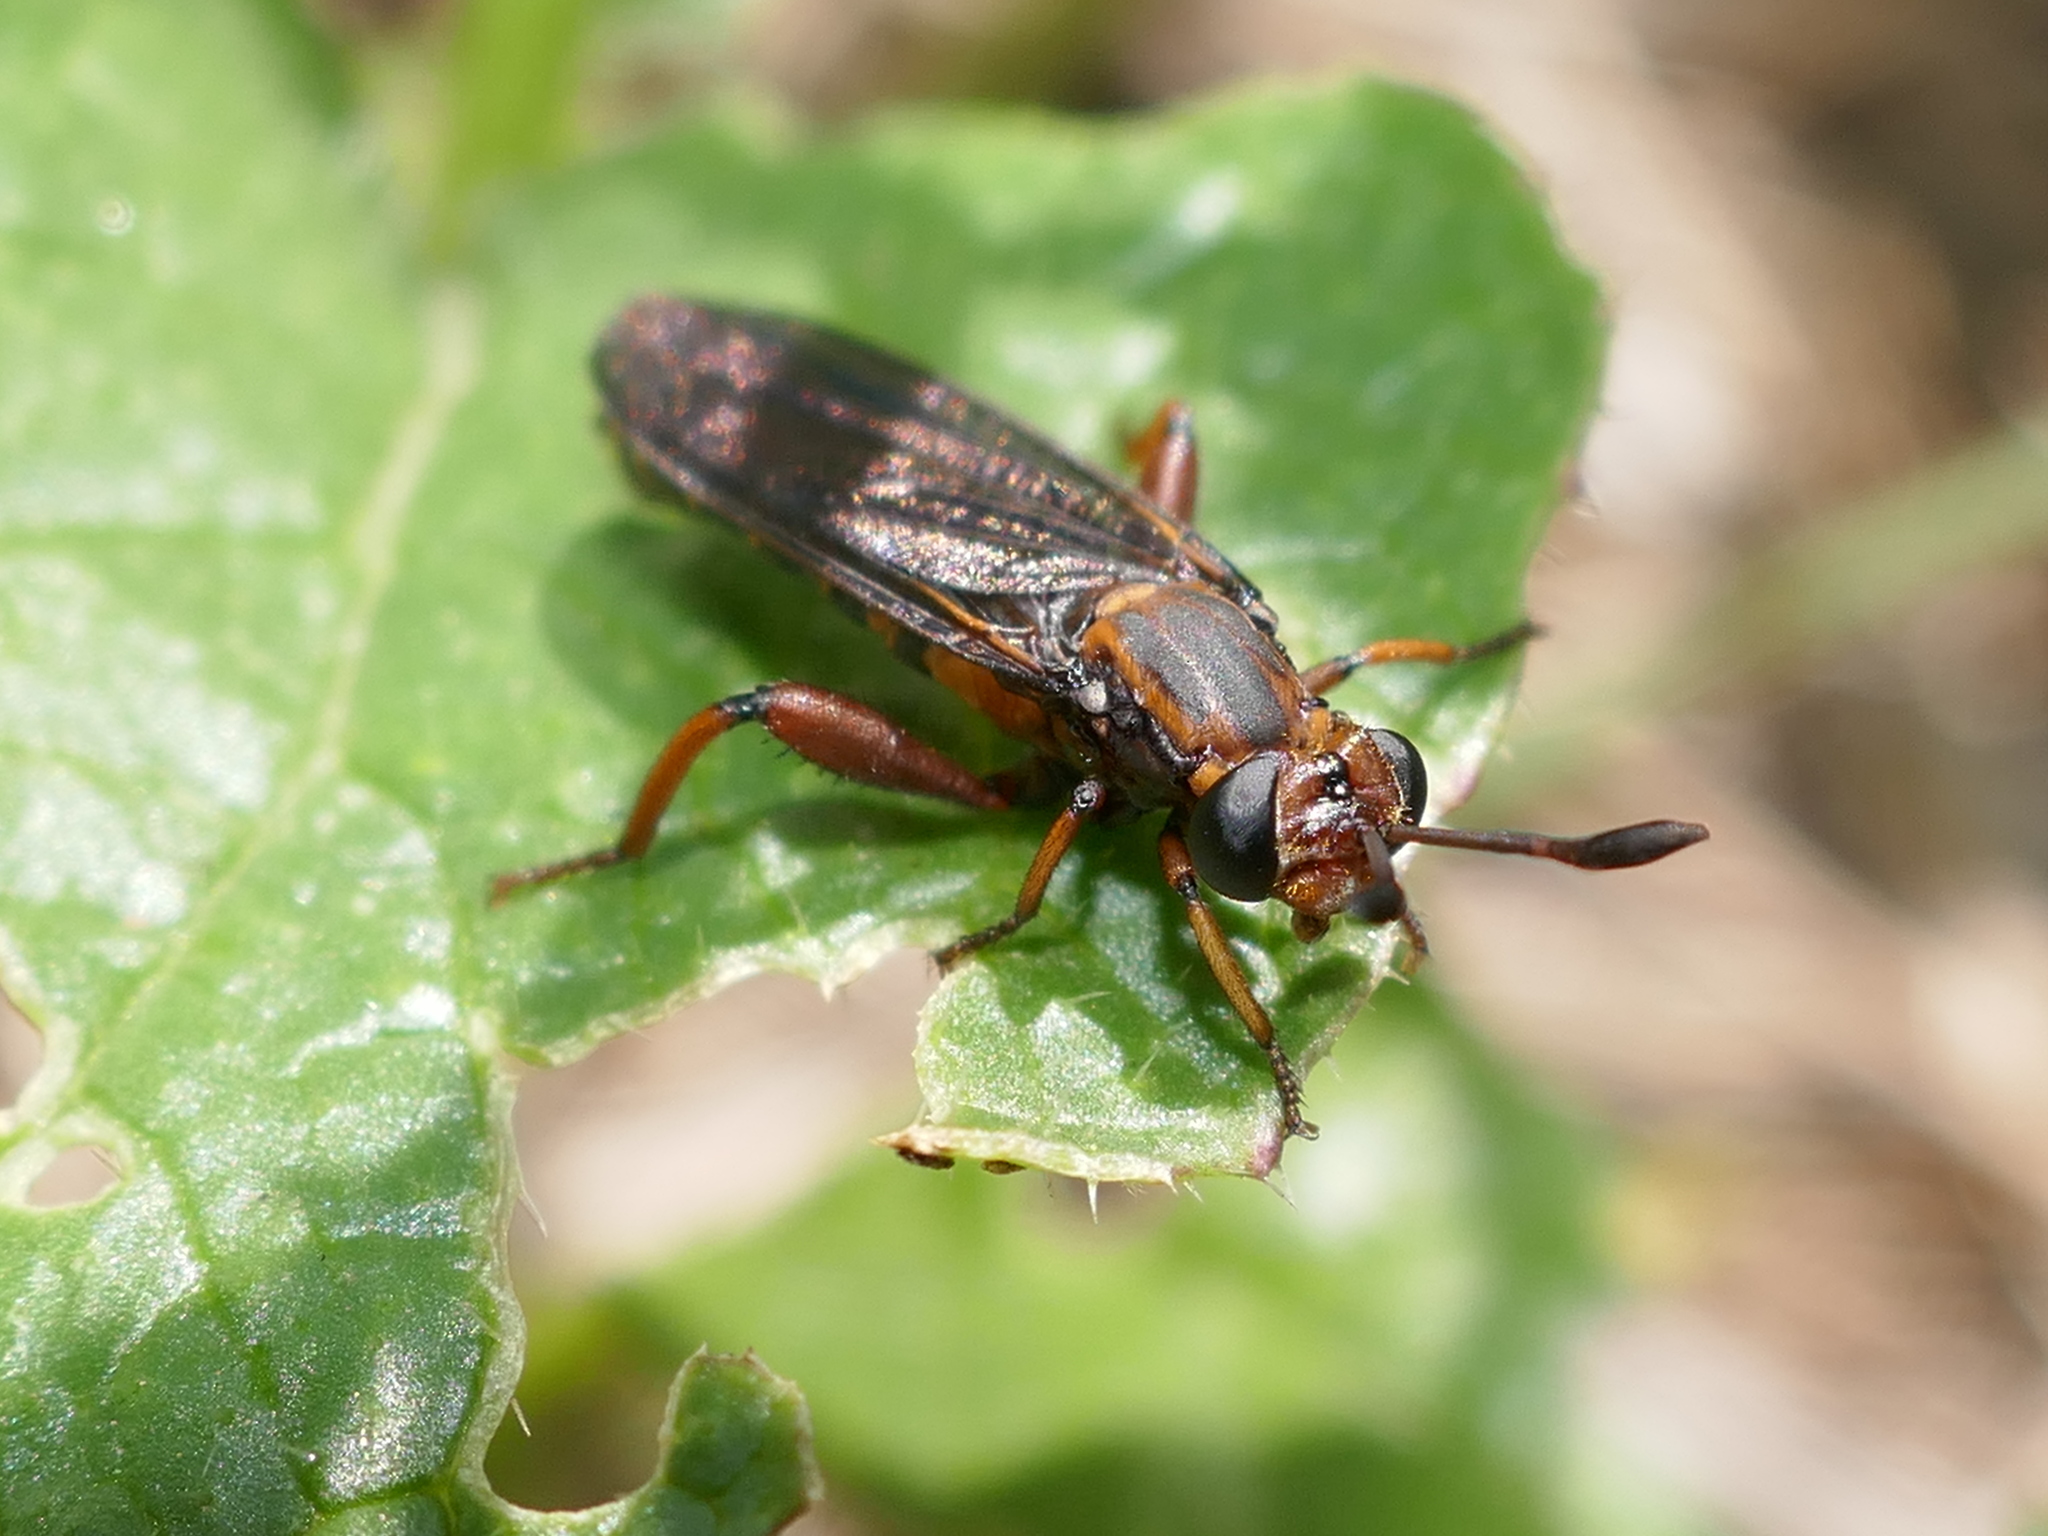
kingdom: Animalia
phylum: Arthropoda
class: Insecta
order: Diptera
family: Mydidae
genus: Phyllomydas
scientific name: Phyllomydas parvulus
